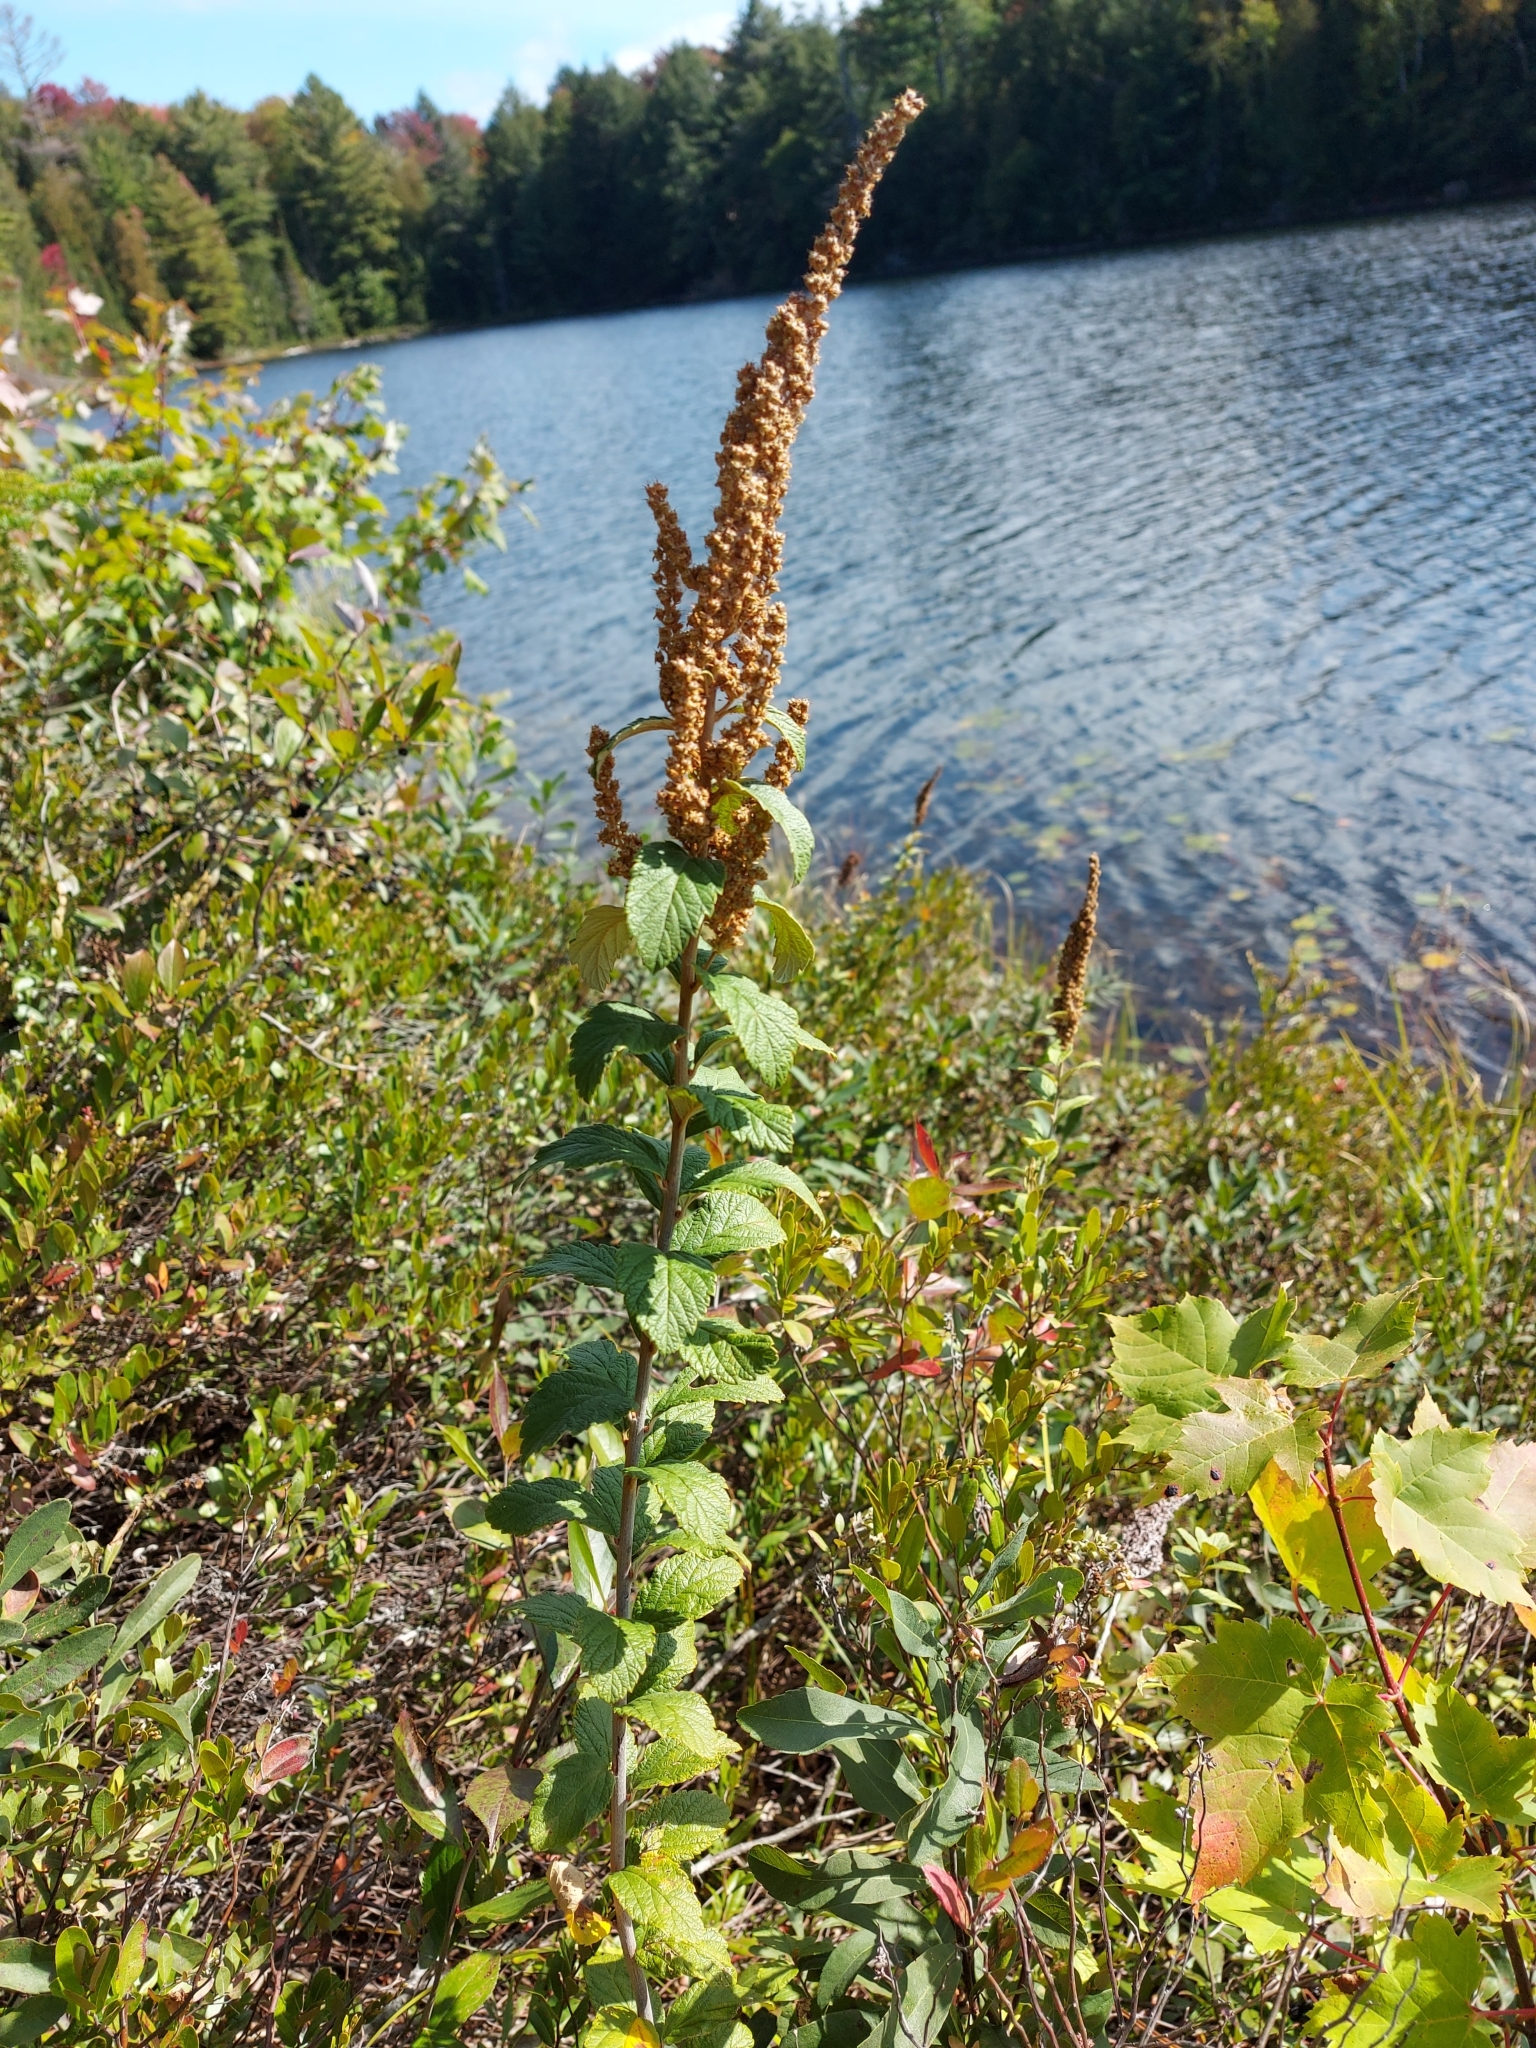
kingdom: Plantae
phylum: Tracheophyta
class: Magnoliopsida
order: Rosales
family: Rosaceae
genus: Spiraea
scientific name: Spiraea tomentosa
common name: Hardhack
